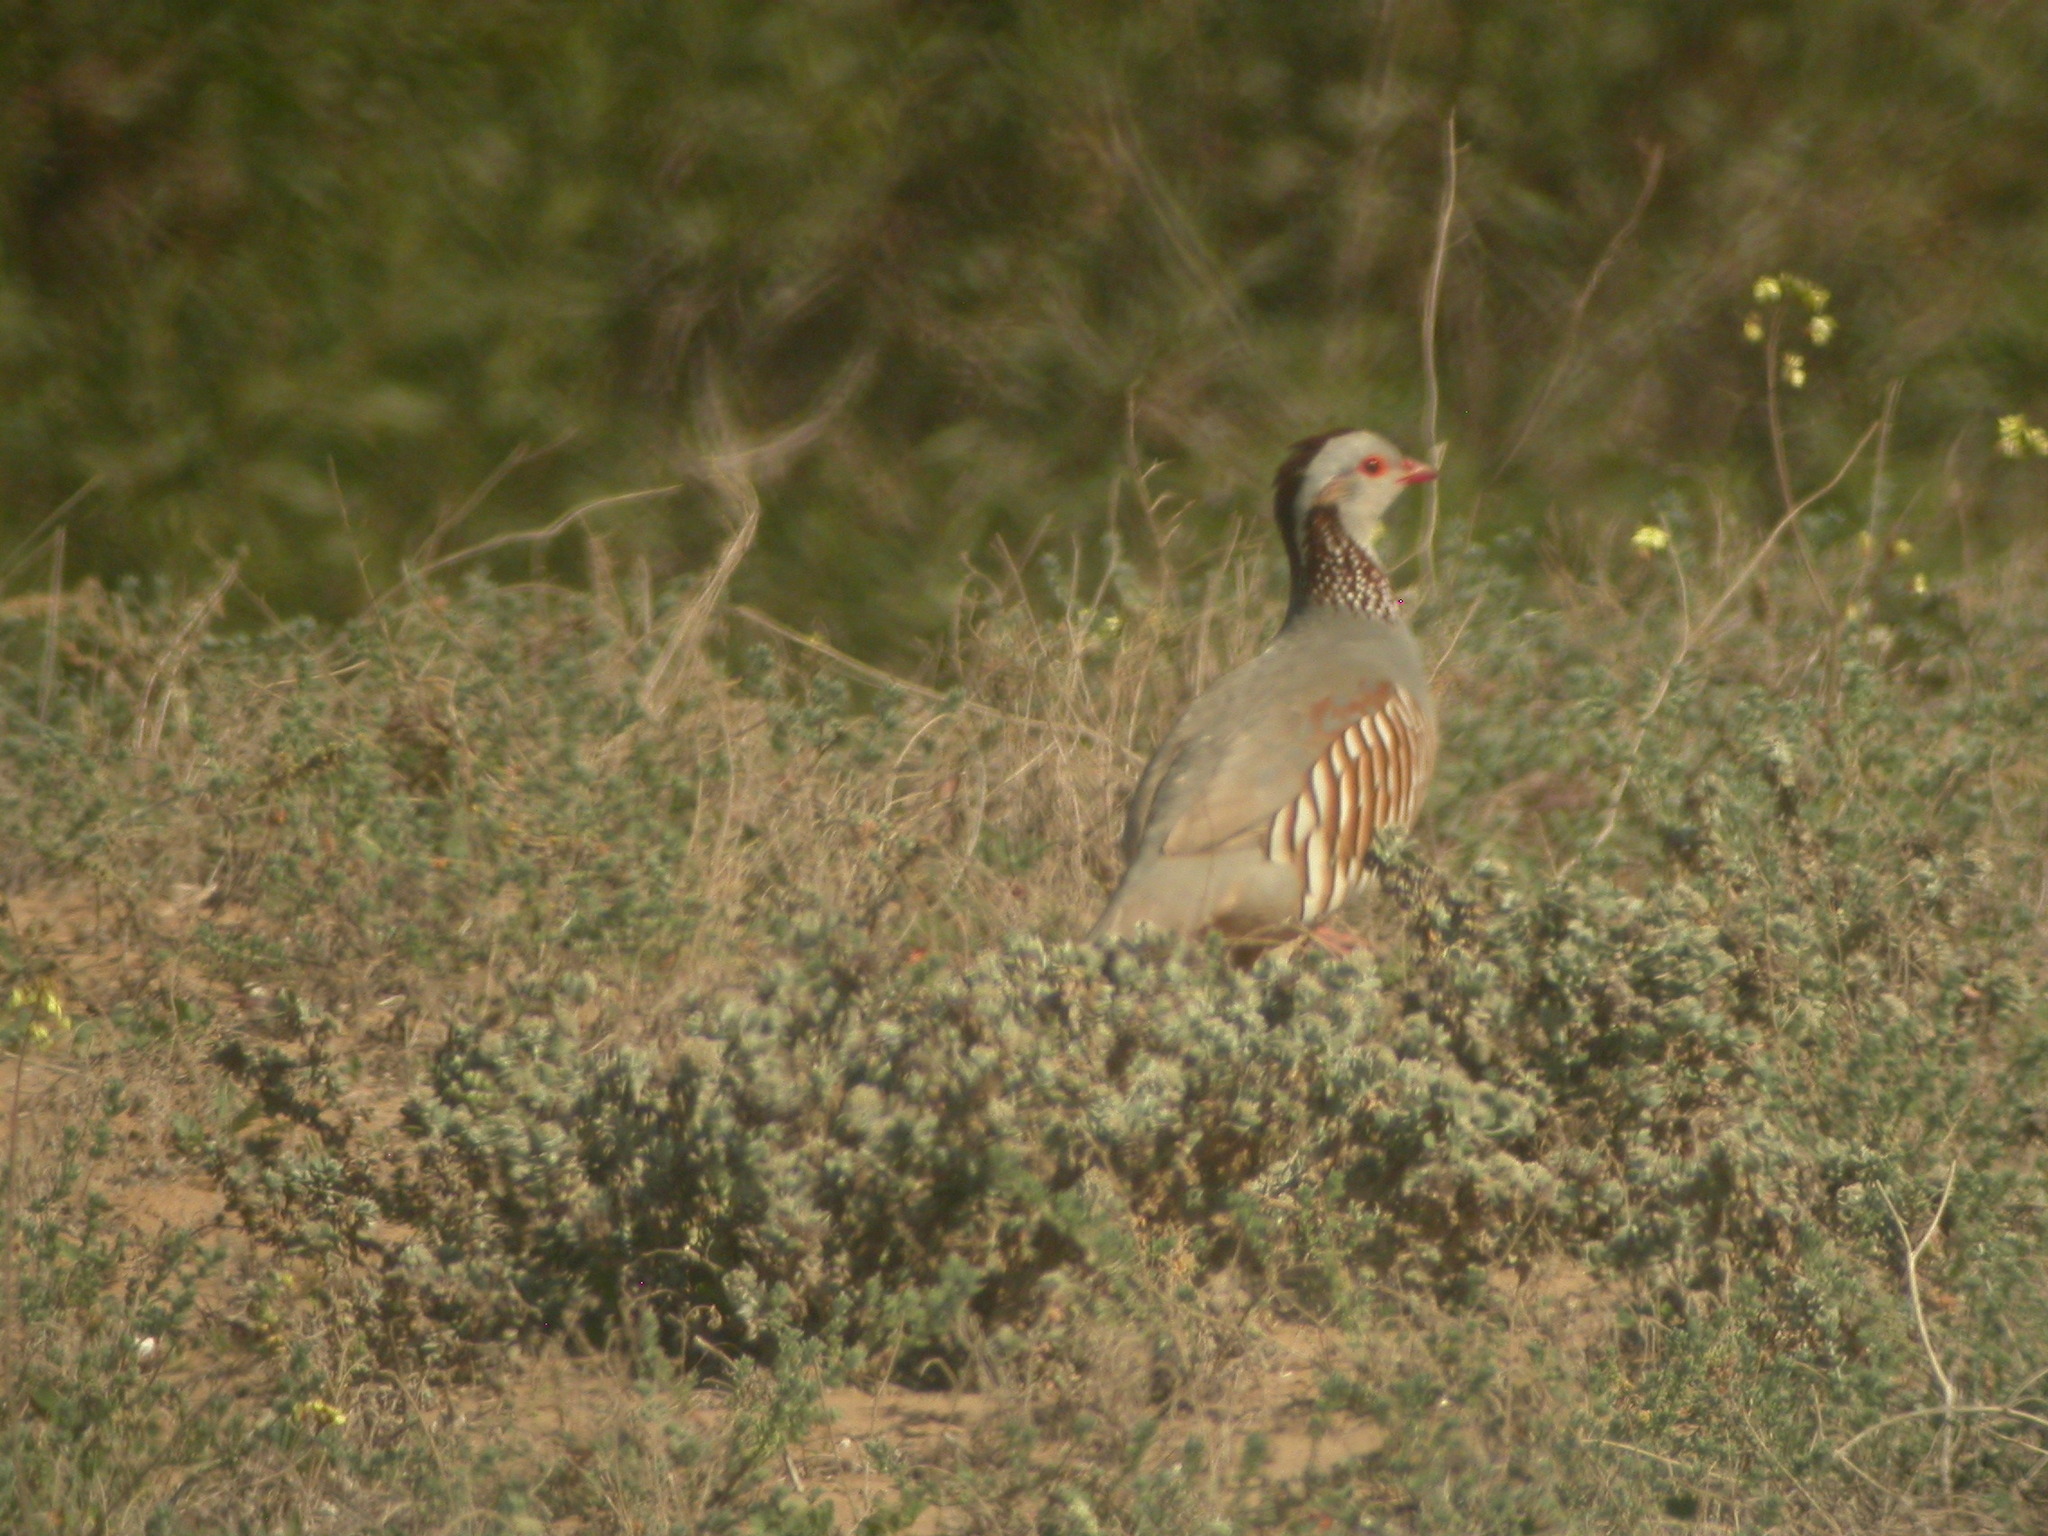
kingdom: Animalia
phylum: Chordata
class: Aves
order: Galliformes
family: Phasianidae
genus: Alectoris
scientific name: Alectoris barbara
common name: Barbary partridge
